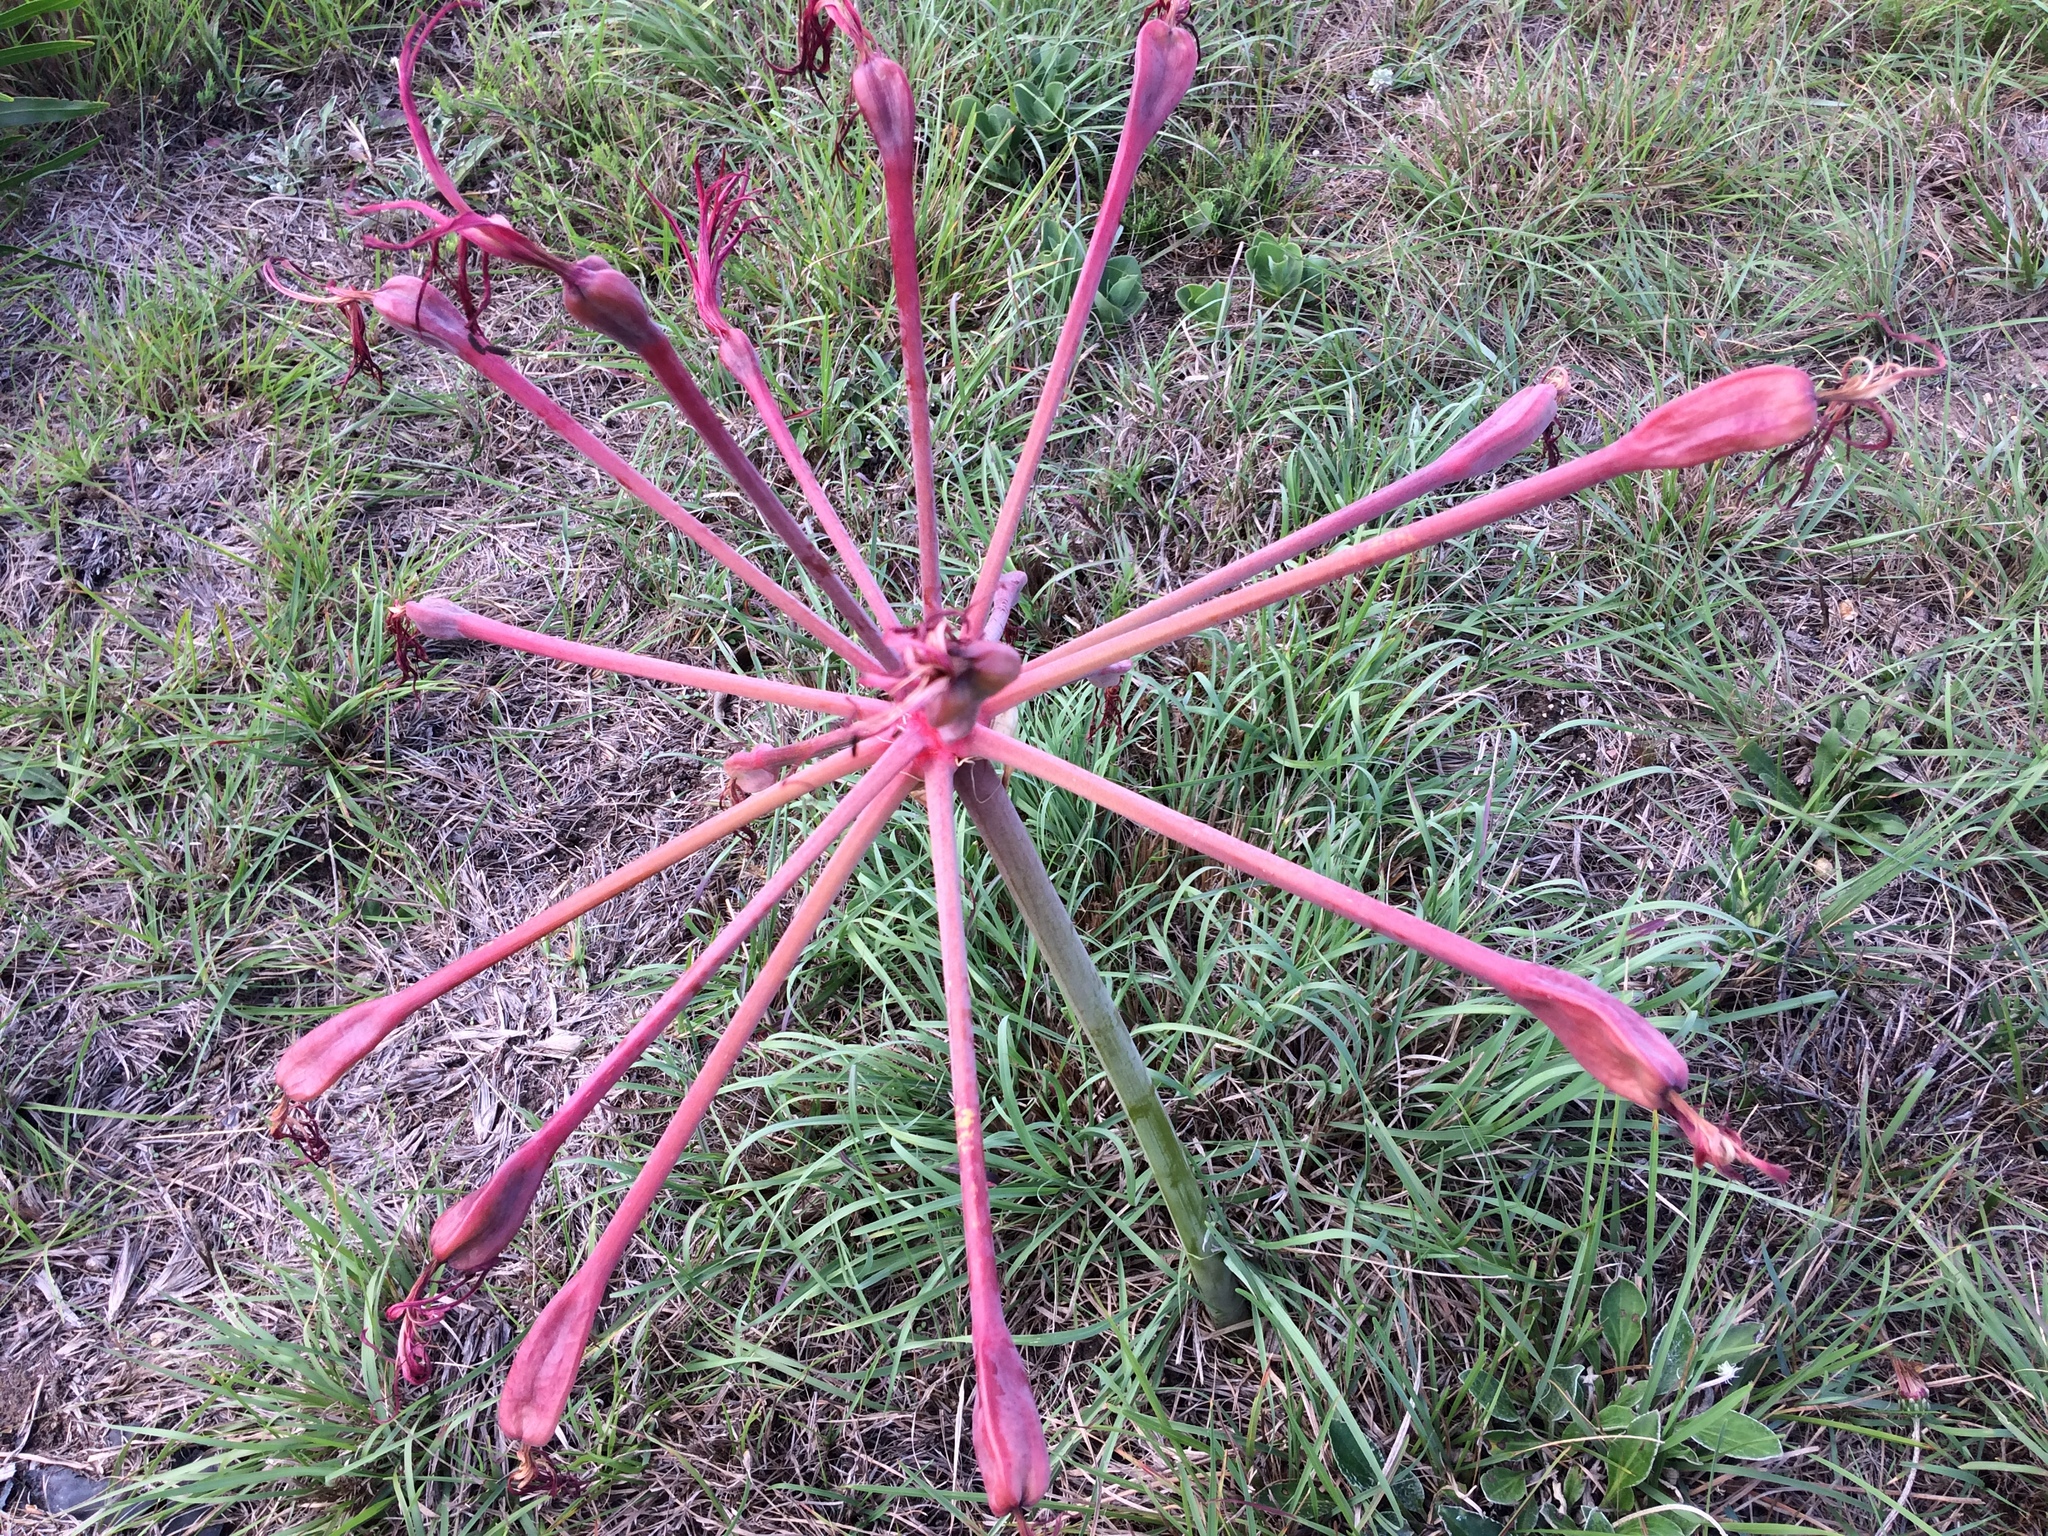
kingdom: Plantae
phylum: Tracheophyta
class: Liliopsida
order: Asparagales
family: Amaryllidaceae
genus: Brunsvigia
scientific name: Brunsvigia litoralis
